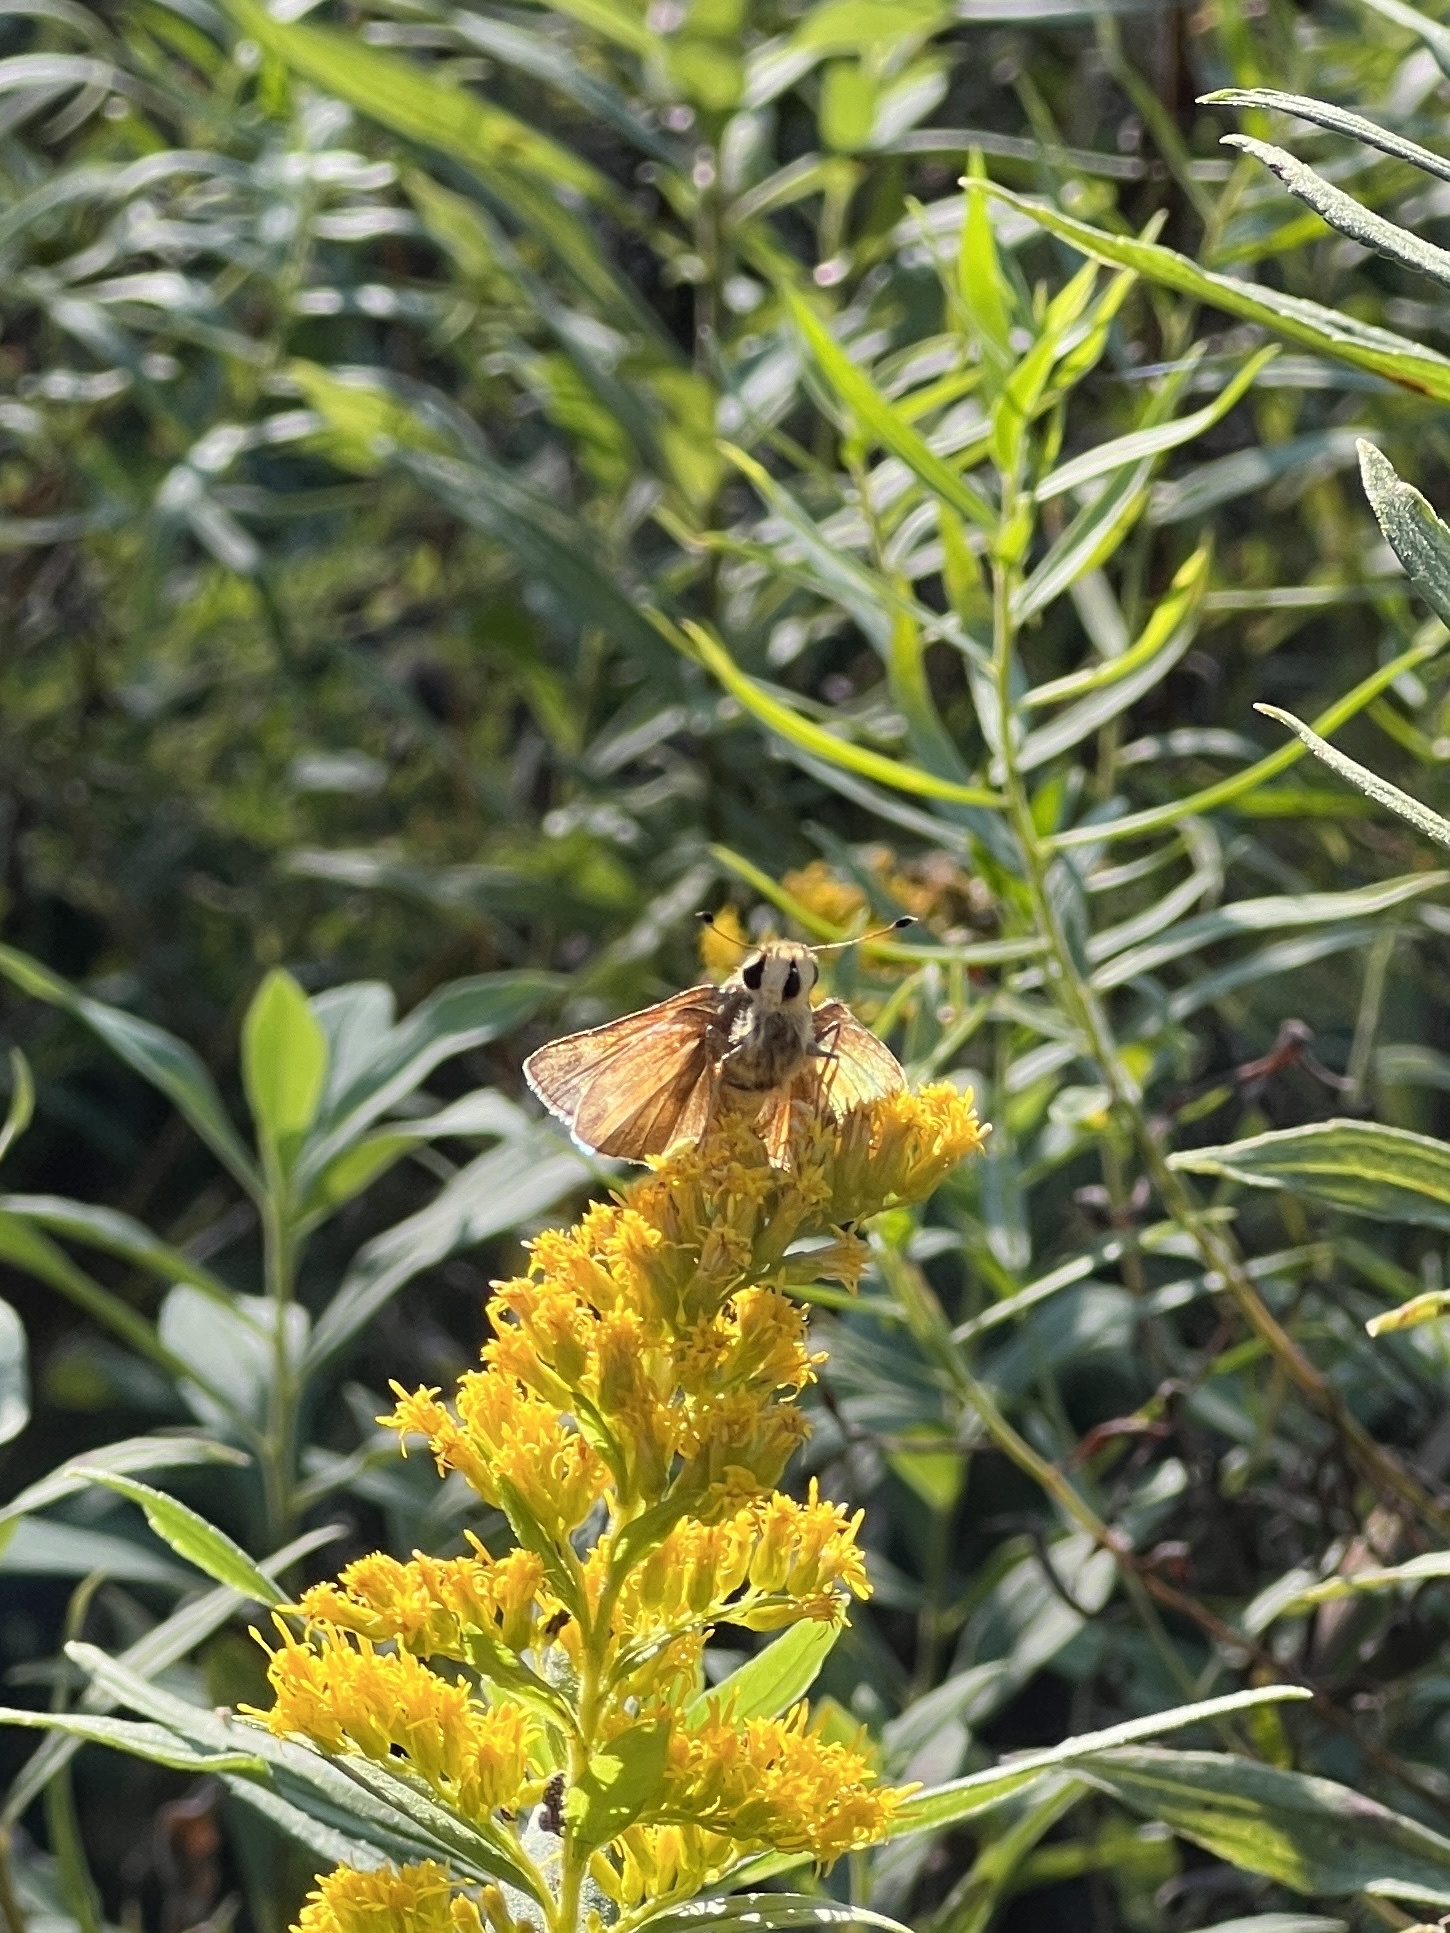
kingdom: Animalia
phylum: Arthropoda
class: Insecta
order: Lepidoptera
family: Hesperiidae
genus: Atalopedes
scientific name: Atalopedes
